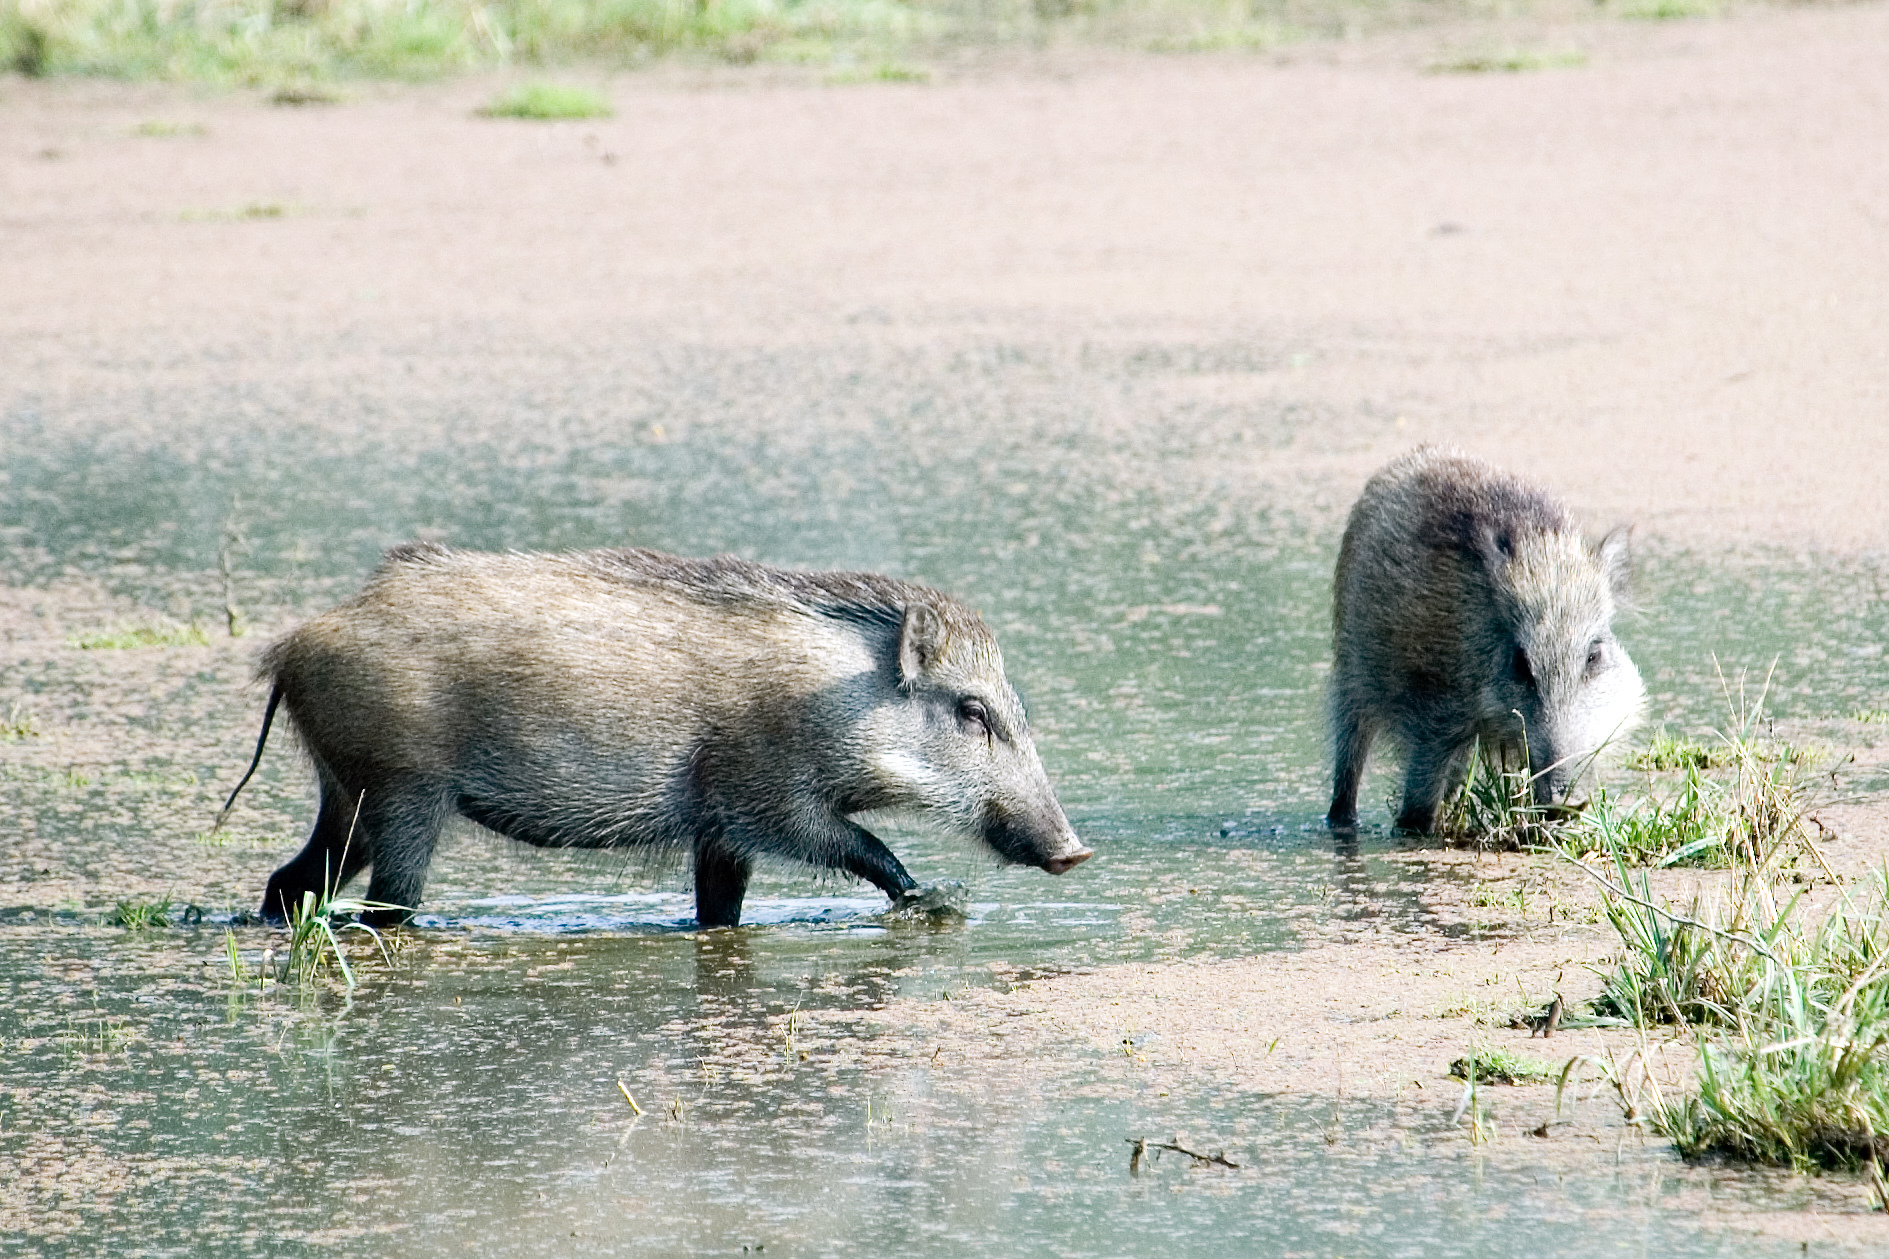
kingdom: Animalia
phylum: Chordata
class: Mammalia
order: Artiodactyla
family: Suidae
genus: Sus
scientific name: Sus scrofa
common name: Wild boar
